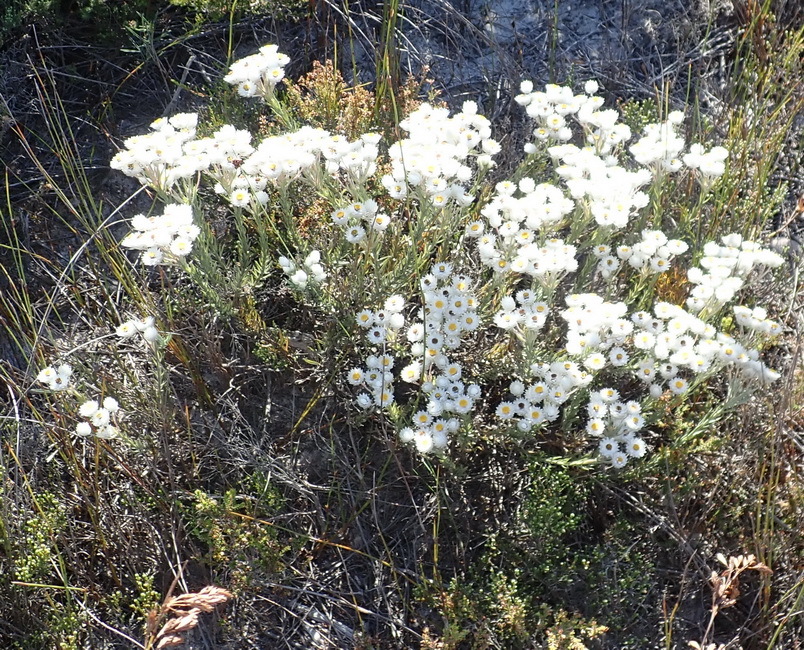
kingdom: Plantae
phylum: Tracheophyta
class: Magnoliopsida
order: Asterales
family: Asteraceae
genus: Achyranthemum
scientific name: Achyranthemum paniculatum
